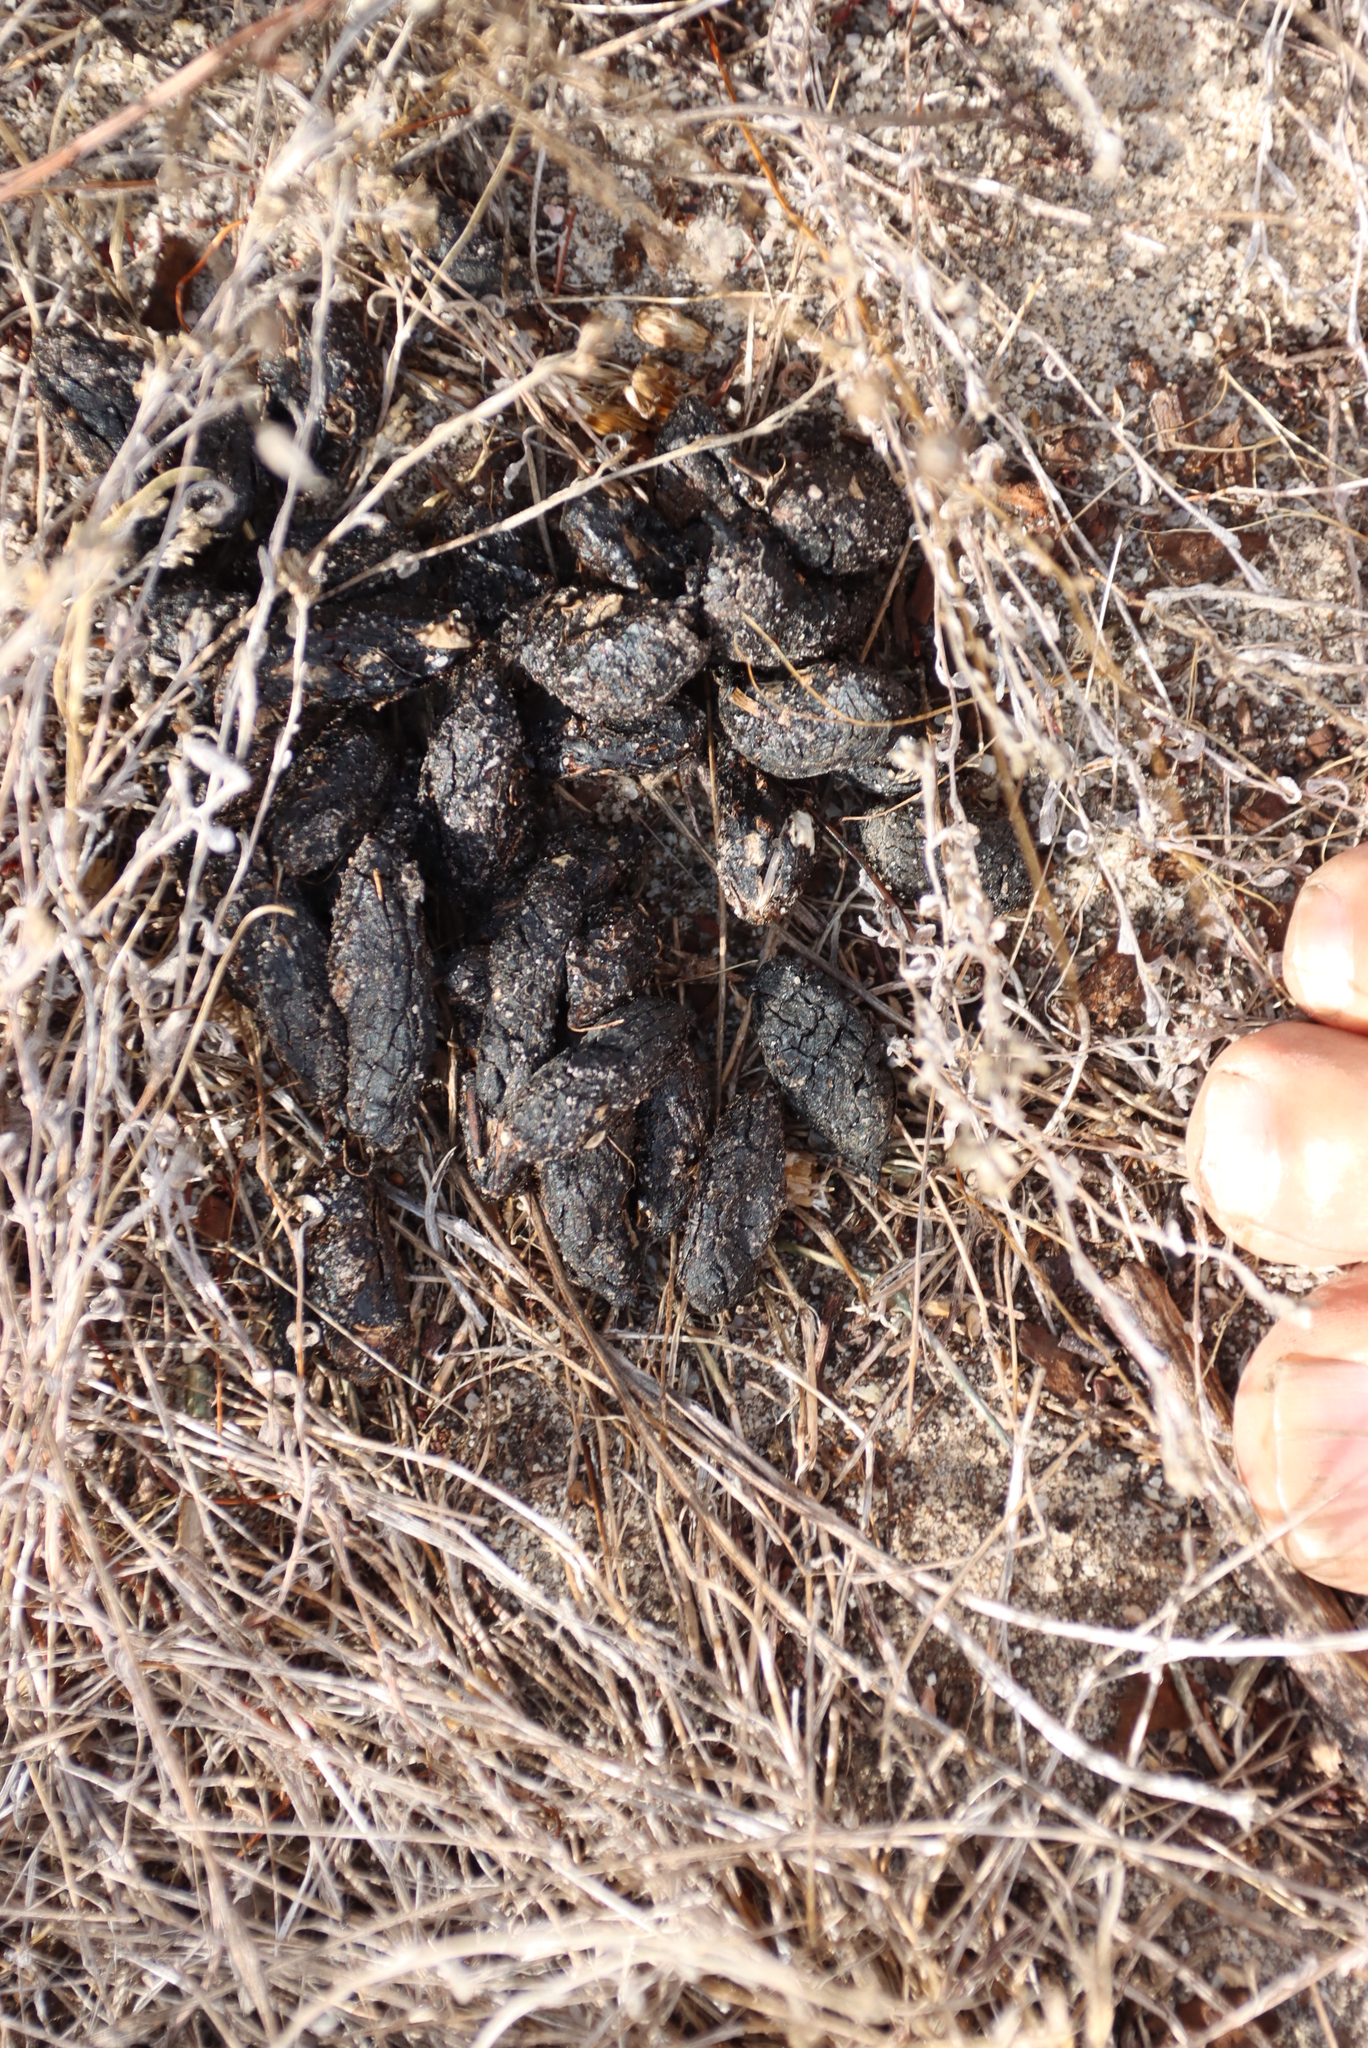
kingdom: Animalia
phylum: Chordata
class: Mammalia
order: Rodentia
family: Hystricidae
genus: Hystrix
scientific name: Hystrix africaeaustralis
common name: Cape porcupine
